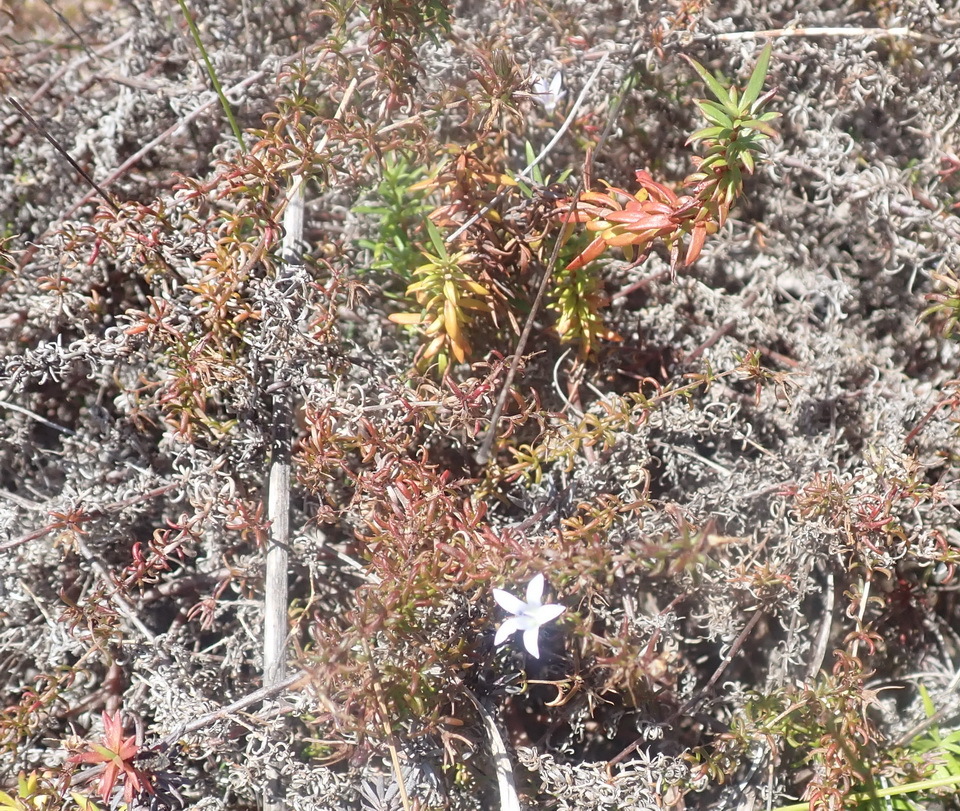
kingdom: Plantae
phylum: Tracheophyta
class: Magnoliopsida
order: Asterales
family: Campanulaceae
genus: Wahlenbergia
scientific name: Wahlenbergia thunbergii
